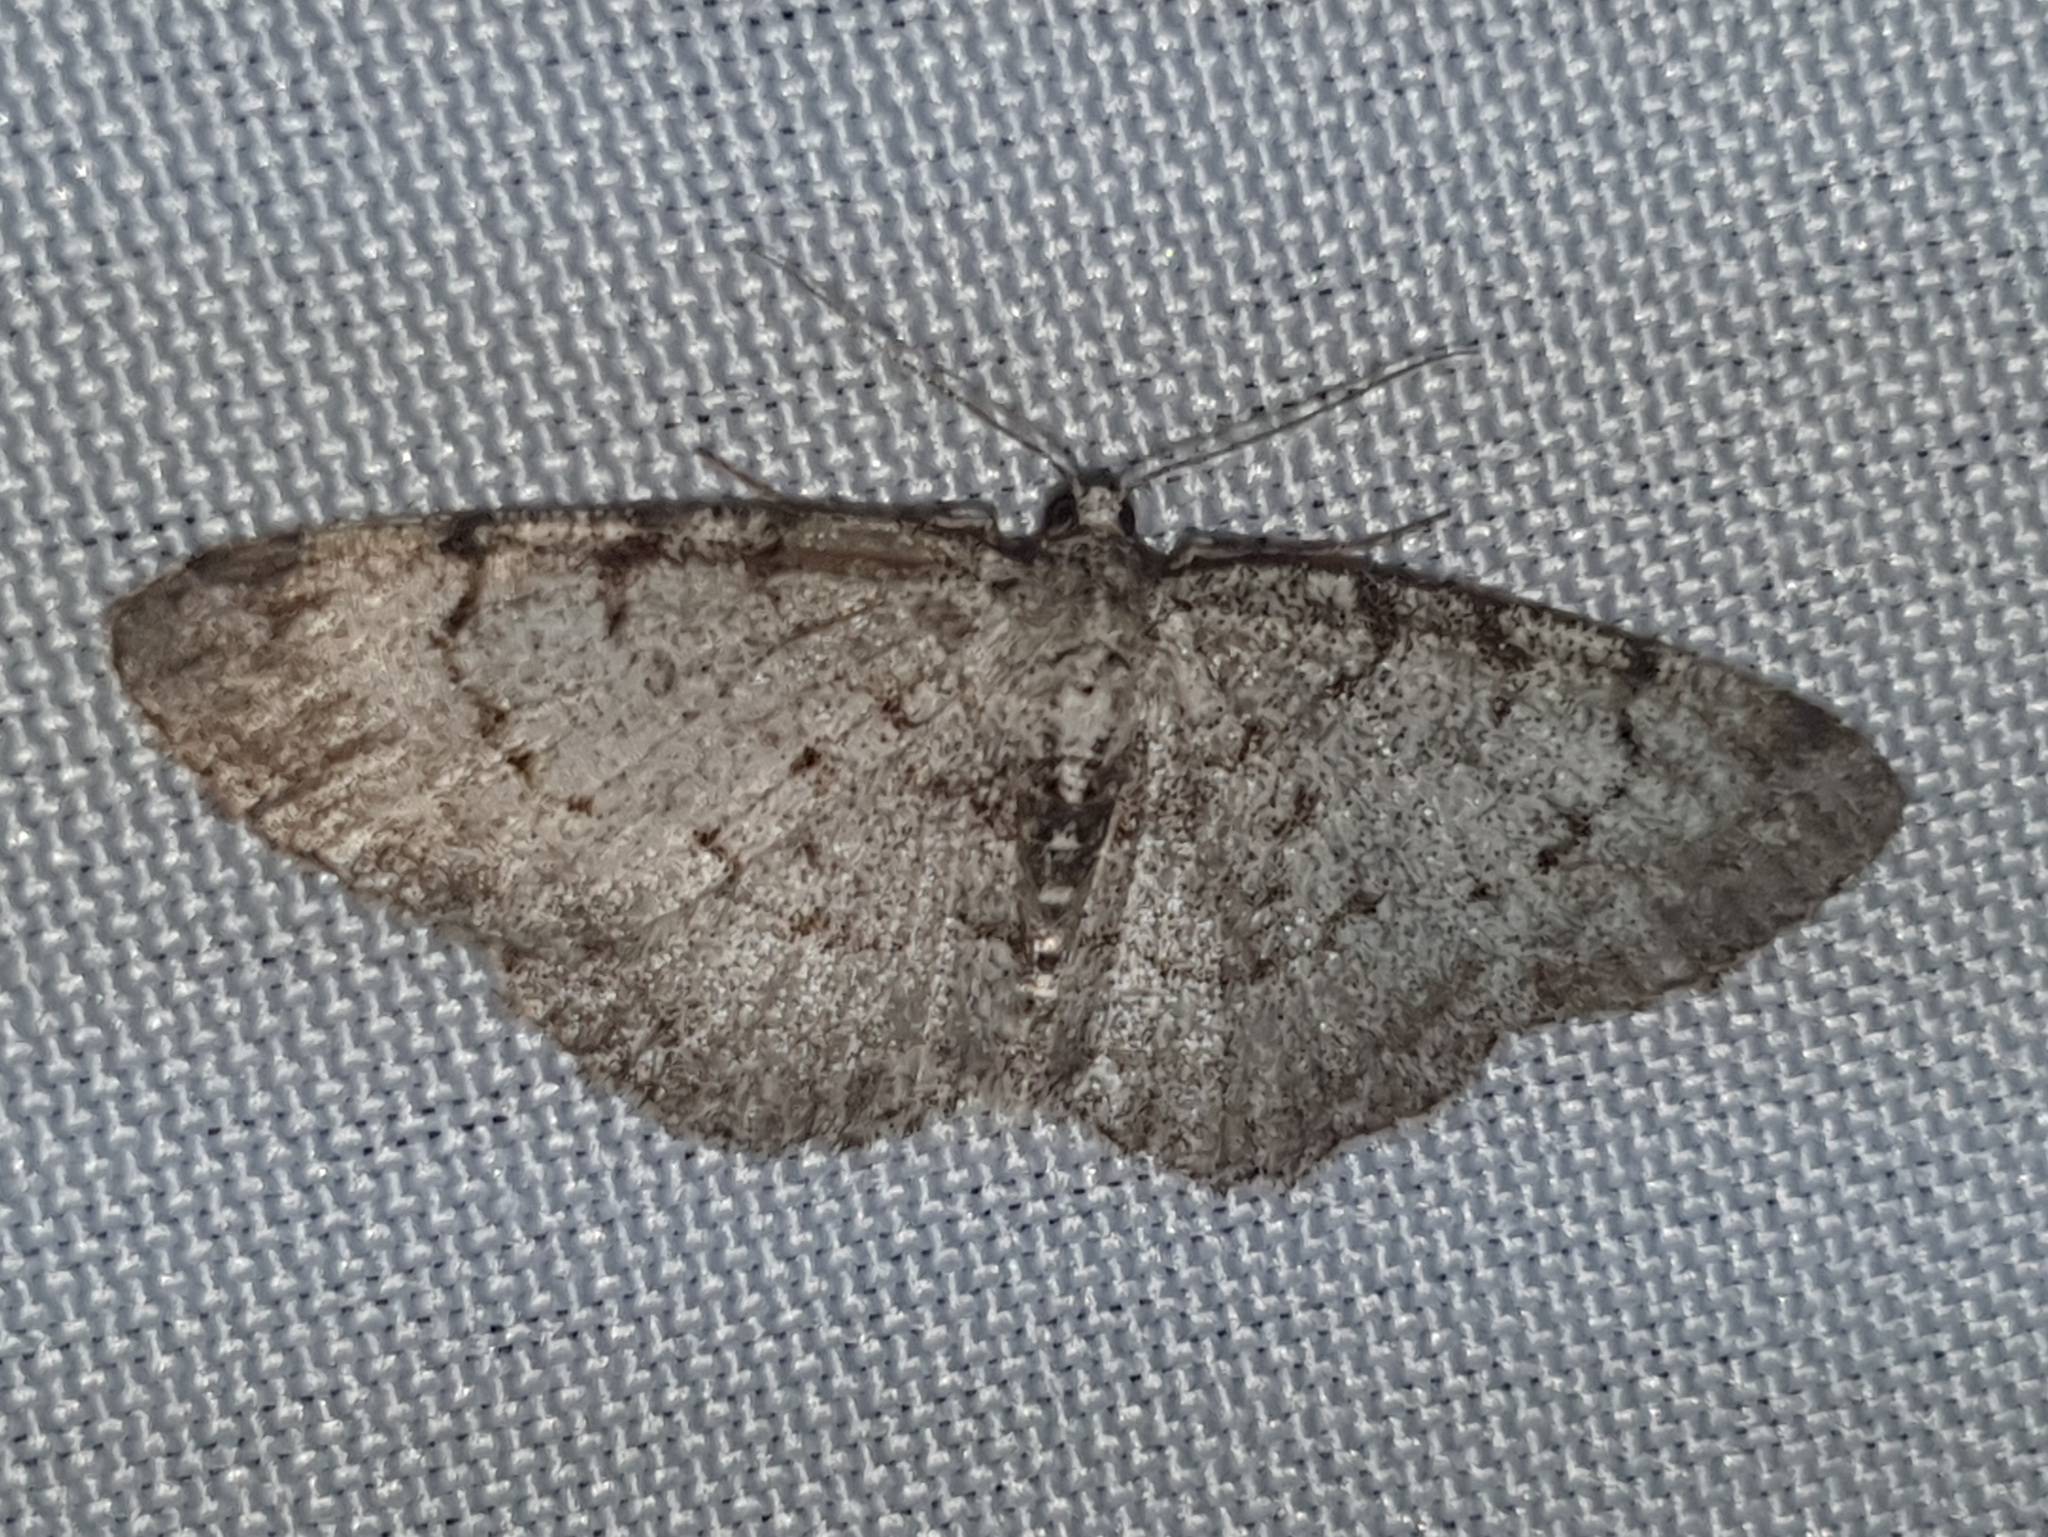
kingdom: Animalia
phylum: Arthropoda
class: Insecta
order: Lepidoptera
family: Geometridae
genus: Aethalura
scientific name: Aethalura punctulata
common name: Grey birch
